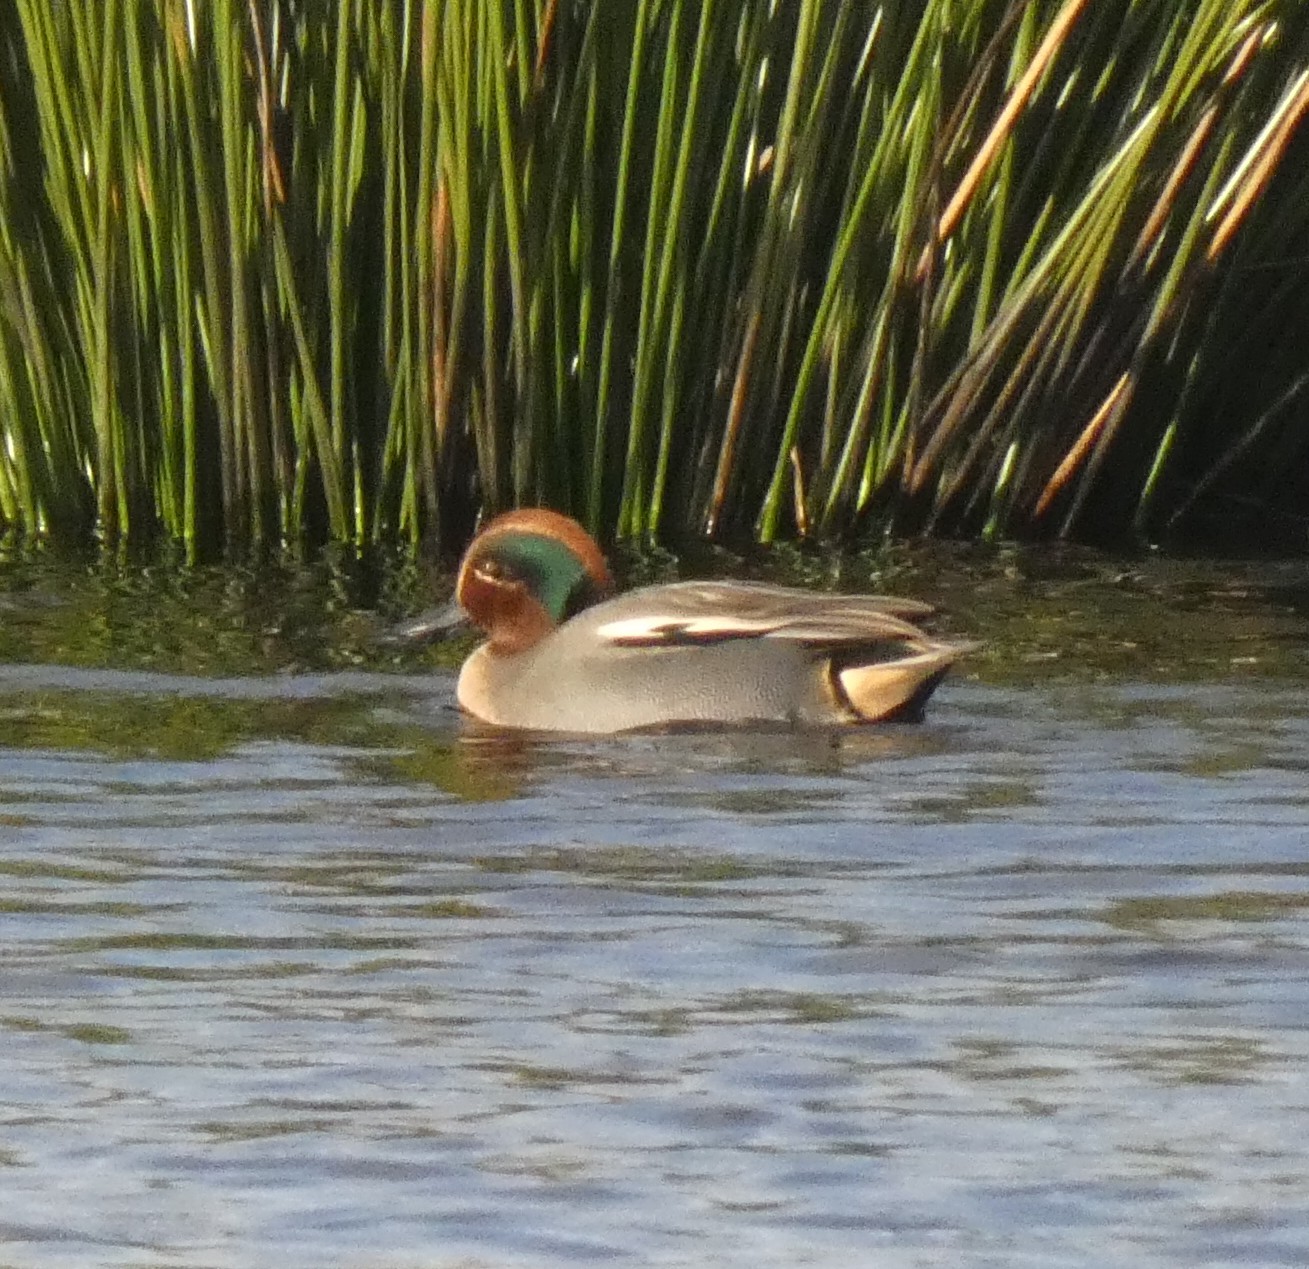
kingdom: Animalia
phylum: Chordata
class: Aves
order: Anseriformes
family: Anatidae
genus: Anas
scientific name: Anas crecca
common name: Eurasian teal
